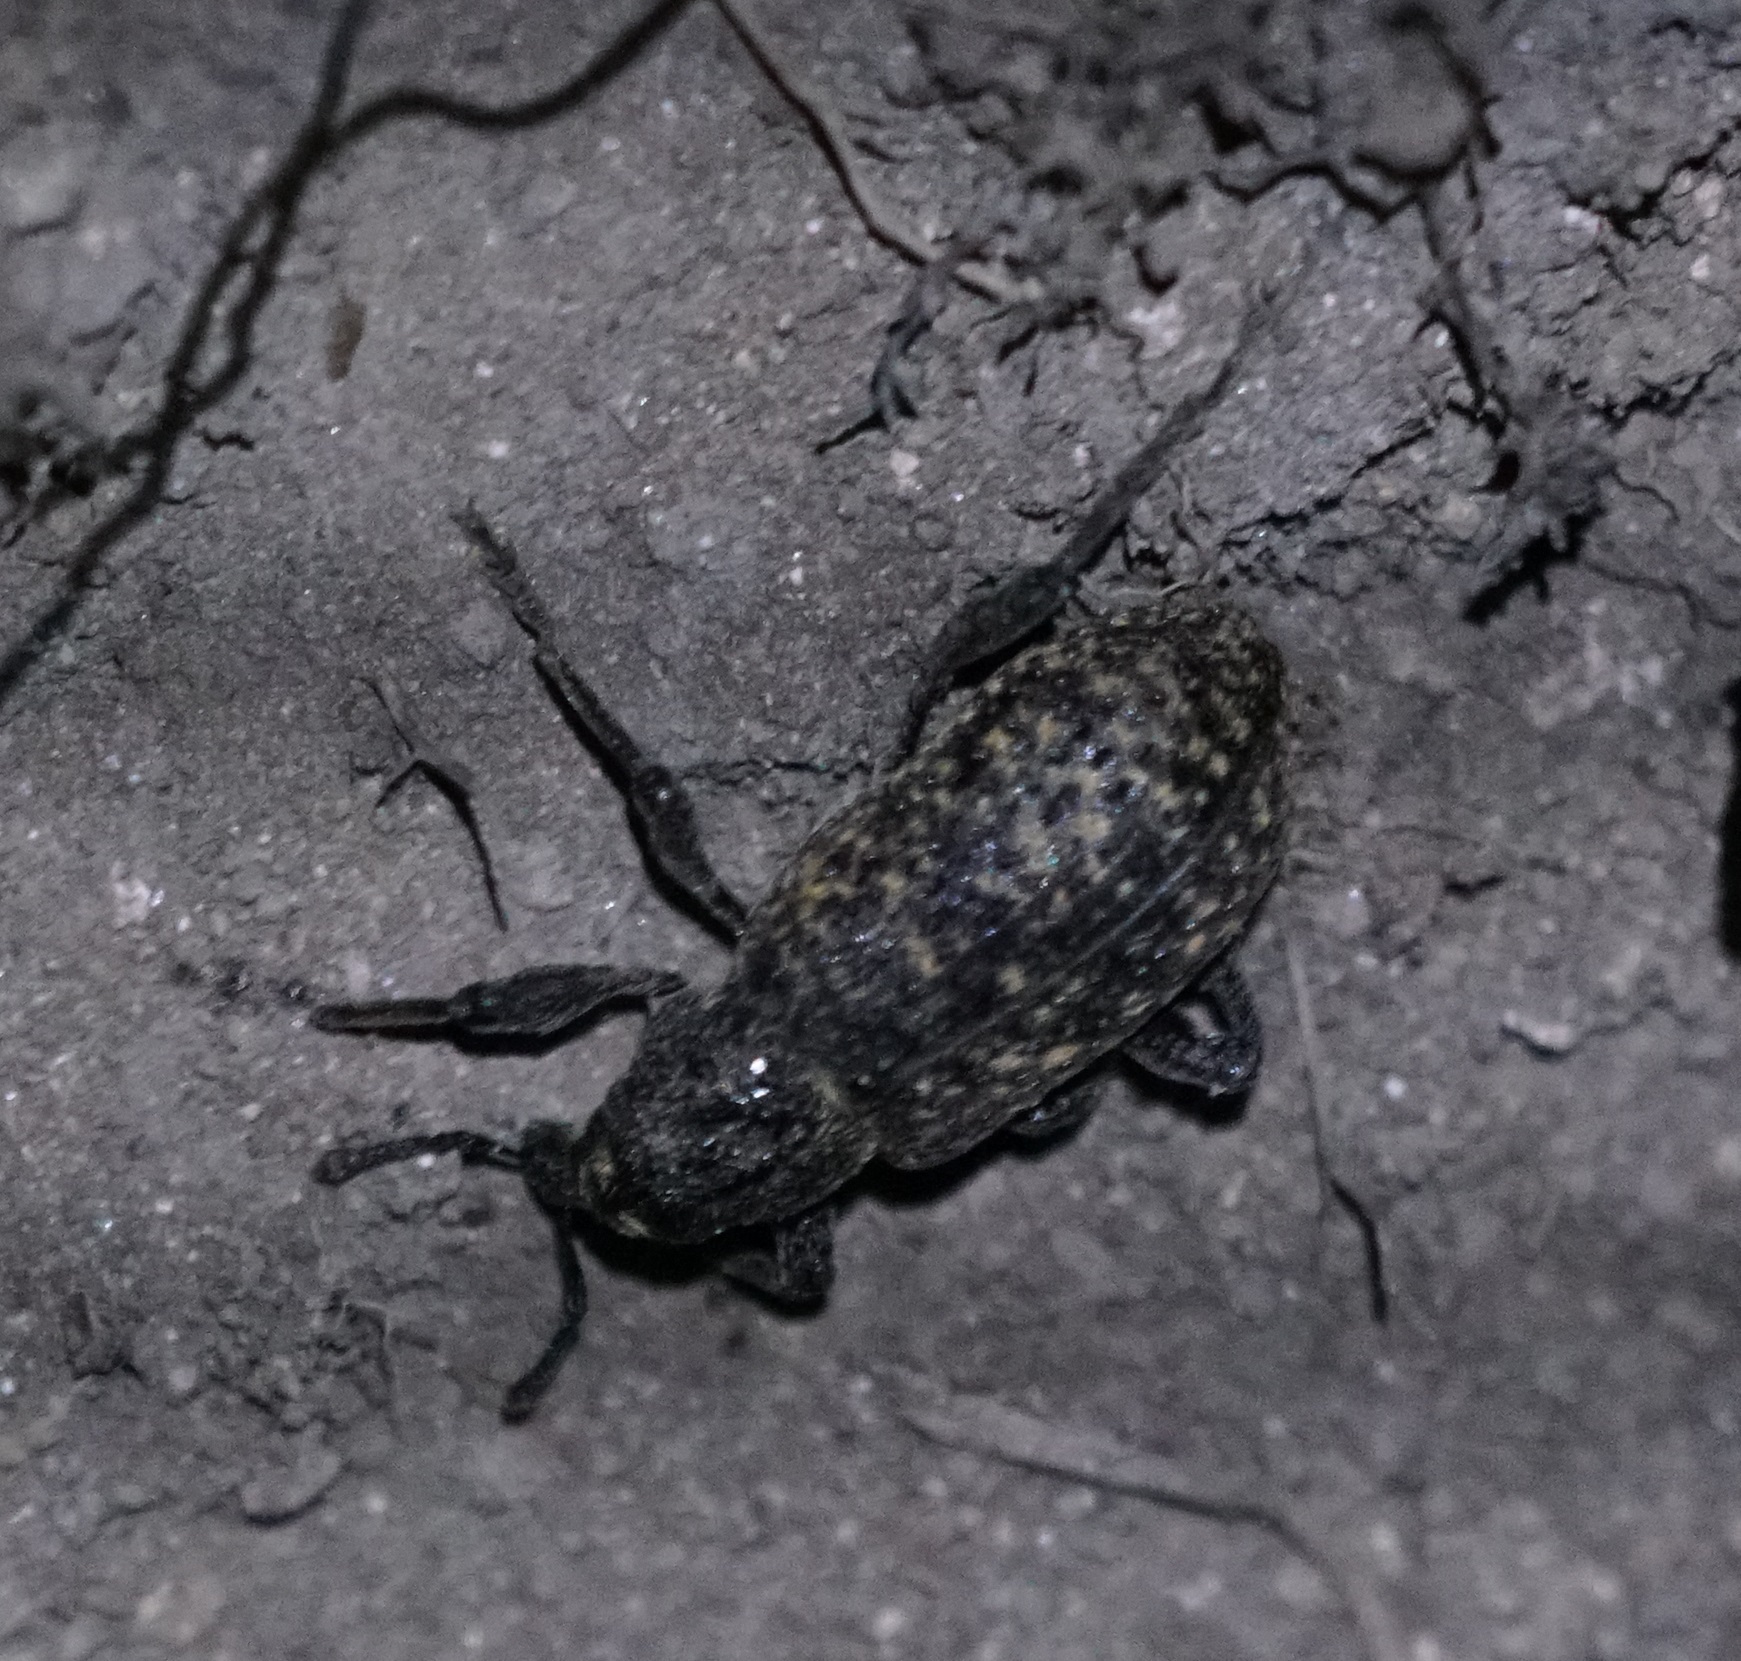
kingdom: Animalia
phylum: Arthropoda
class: Insecta
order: Coleoptera
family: Curculionidae
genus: Hylobius
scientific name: Hylobius excavatus
